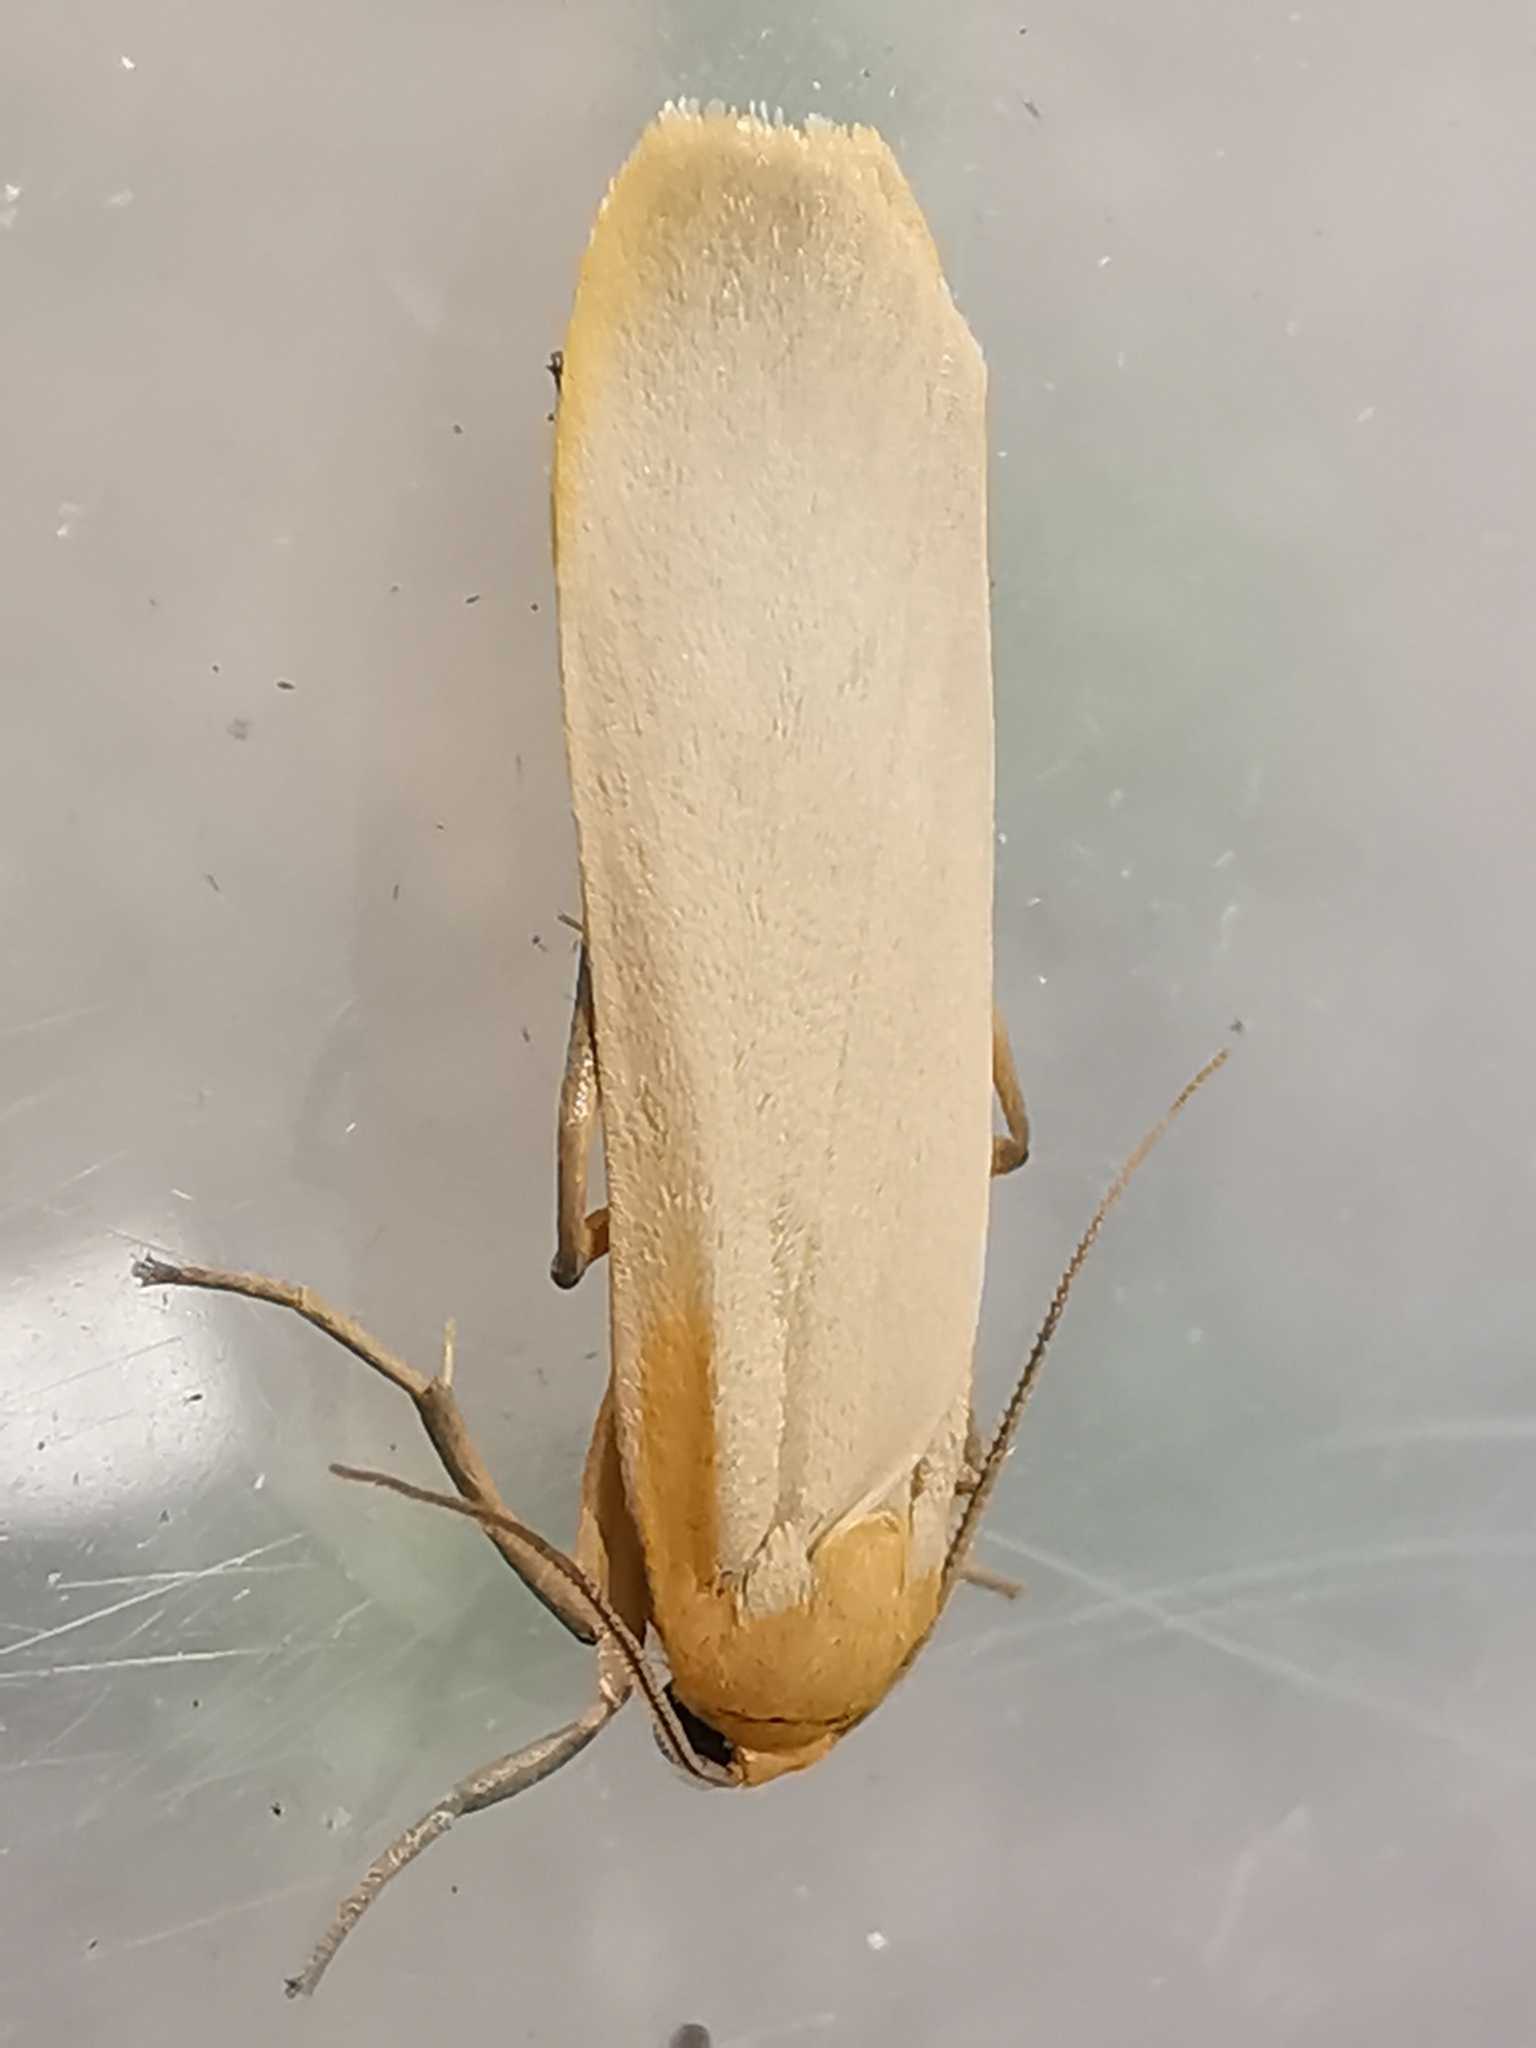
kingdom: Animalia
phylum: Arthropoda
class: Insecta
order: Lepidoptera
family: Erebidae
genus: Katha
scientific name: Katha depressa
